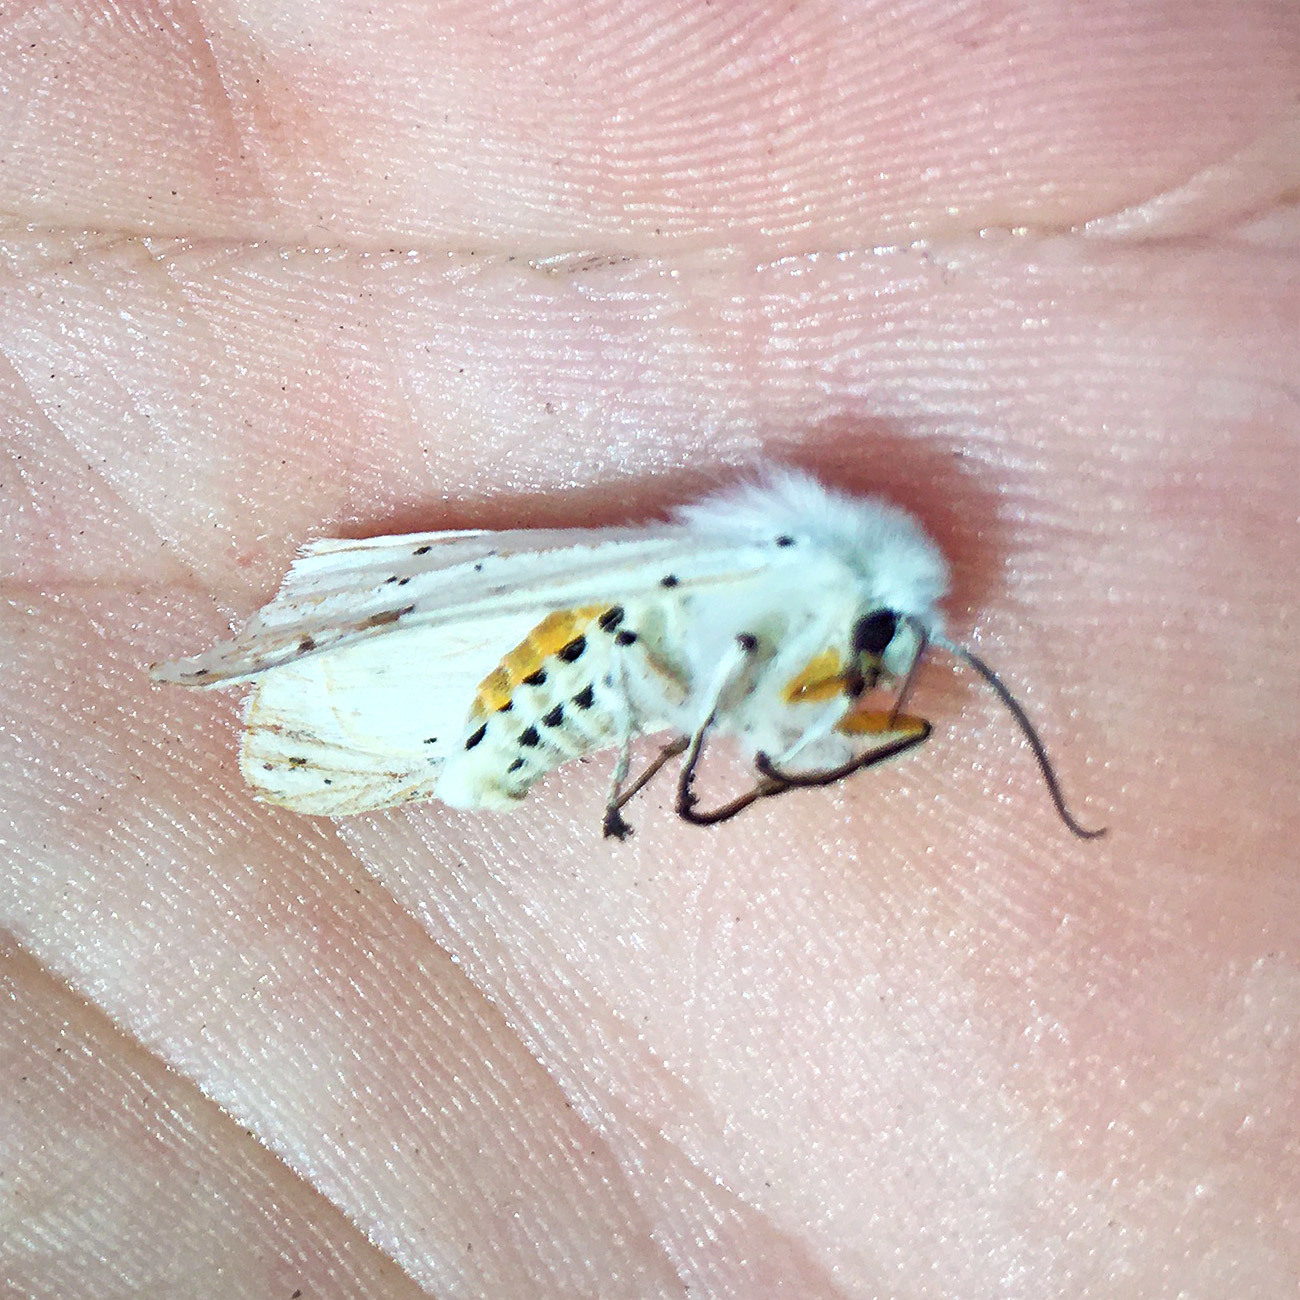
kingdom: Animalia
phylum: Arthropoda
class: Insecta
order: Lepidoptera
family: Erebidae
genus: Spilosoma
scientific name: Spilosoma lubricipeda
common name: White ermine
